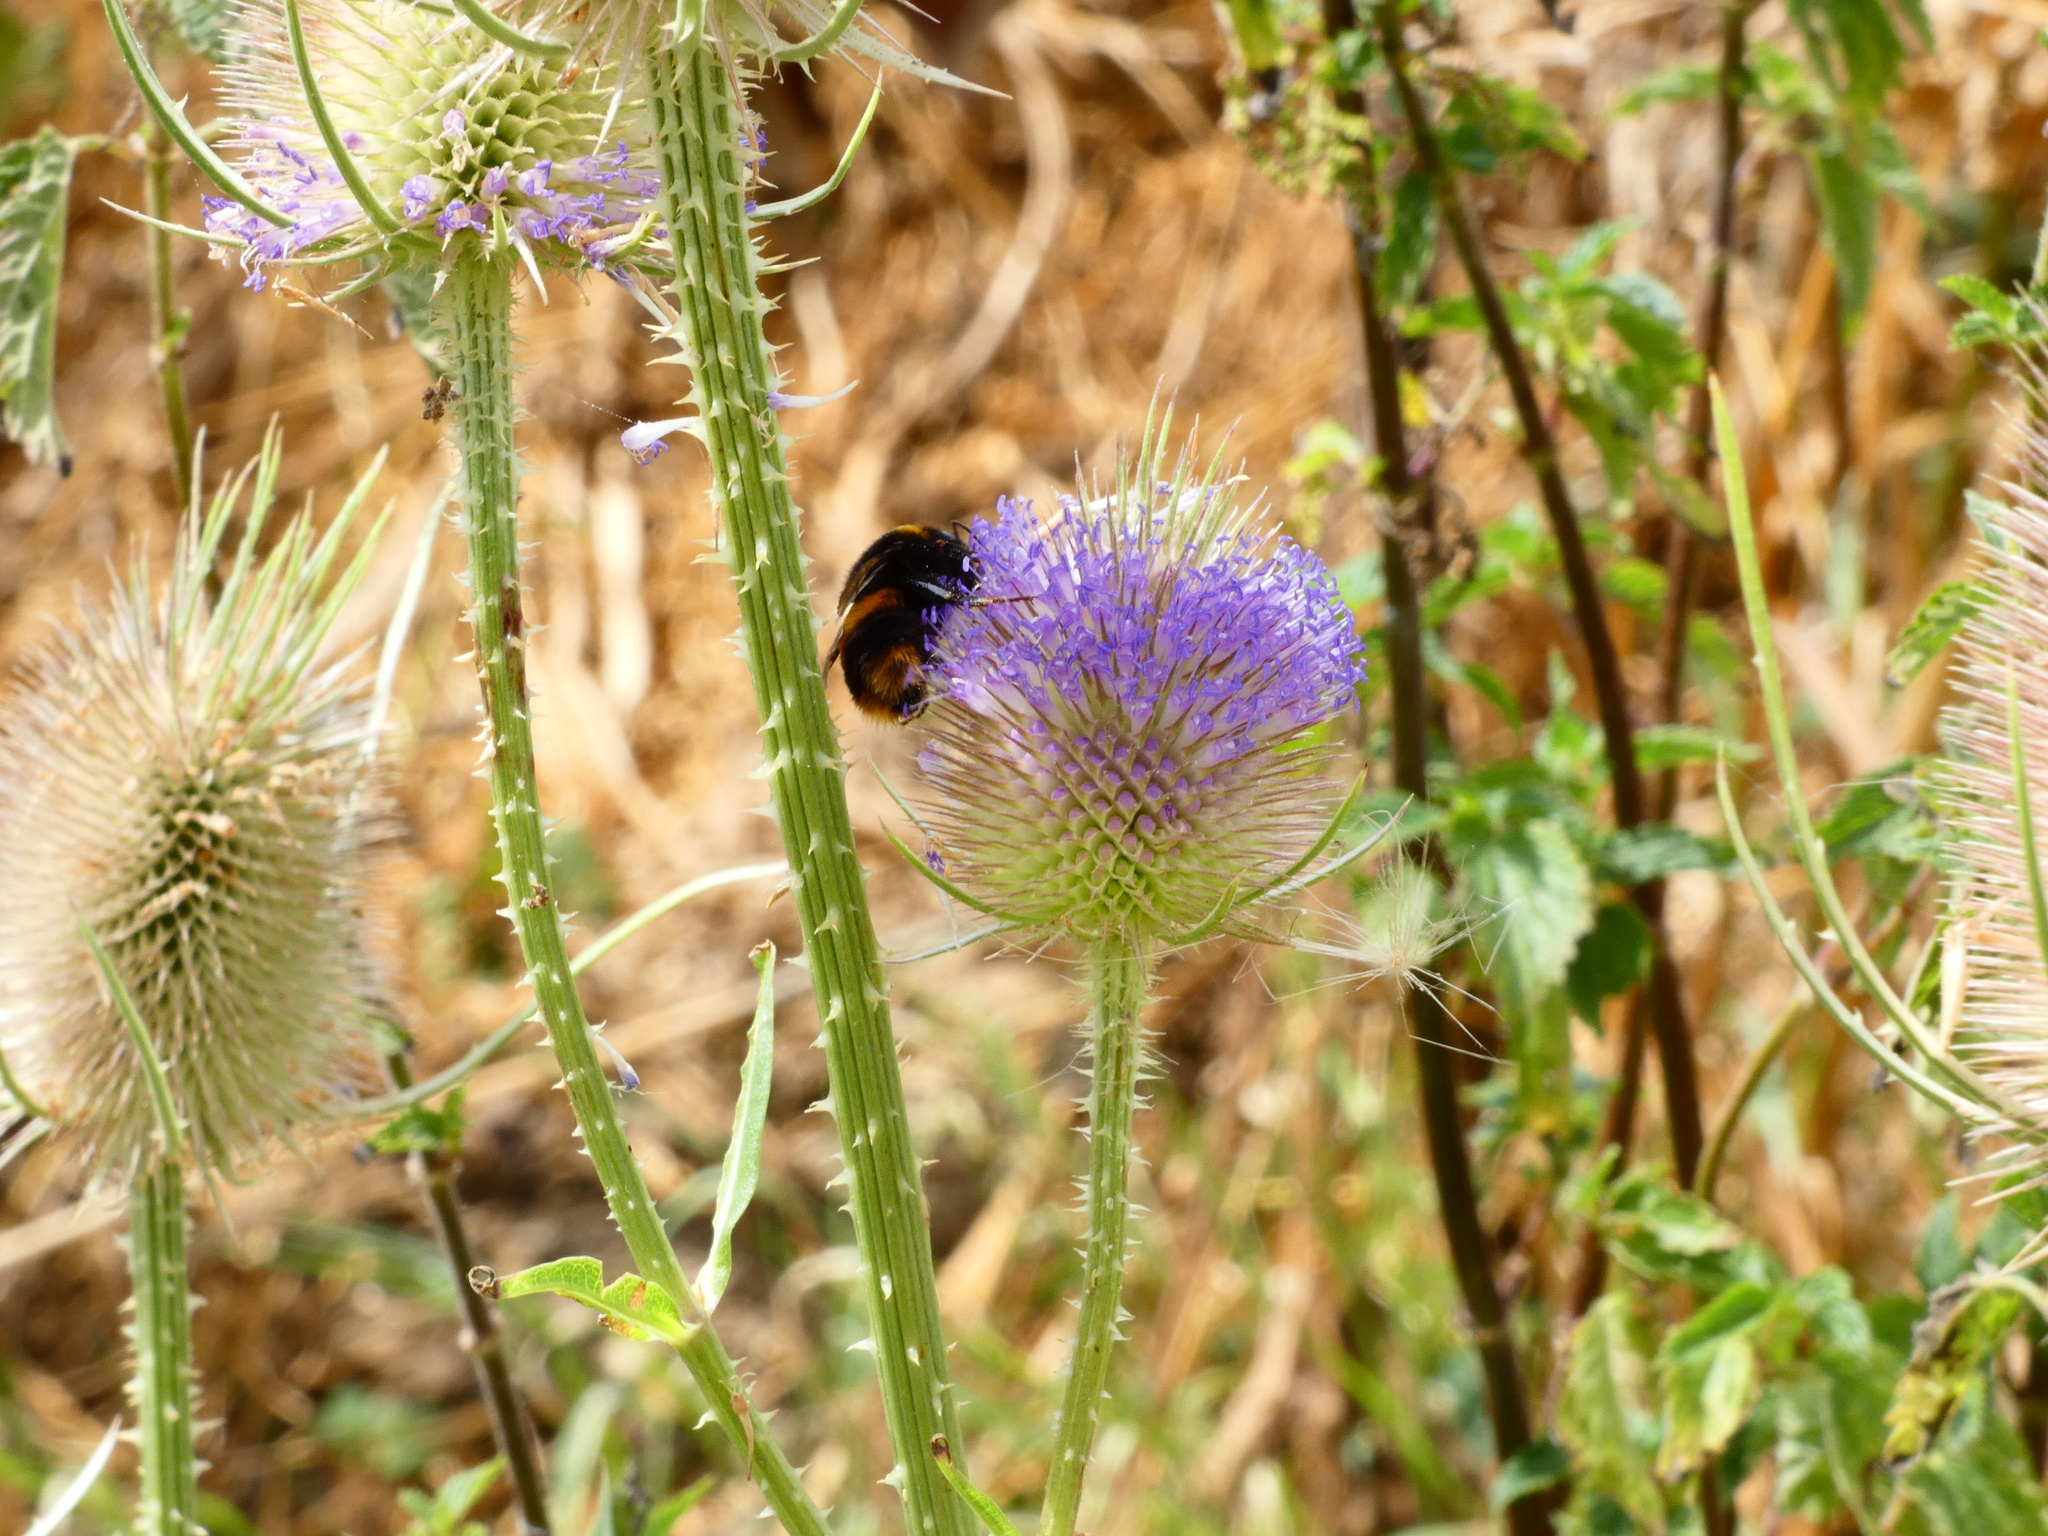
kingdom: Animalia
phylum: Arthropoda
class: Insecta
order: Hymenoptera
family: Apidae
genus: Bombus
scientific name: Bombus terrestris
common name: Buff-tailed bumblebee
